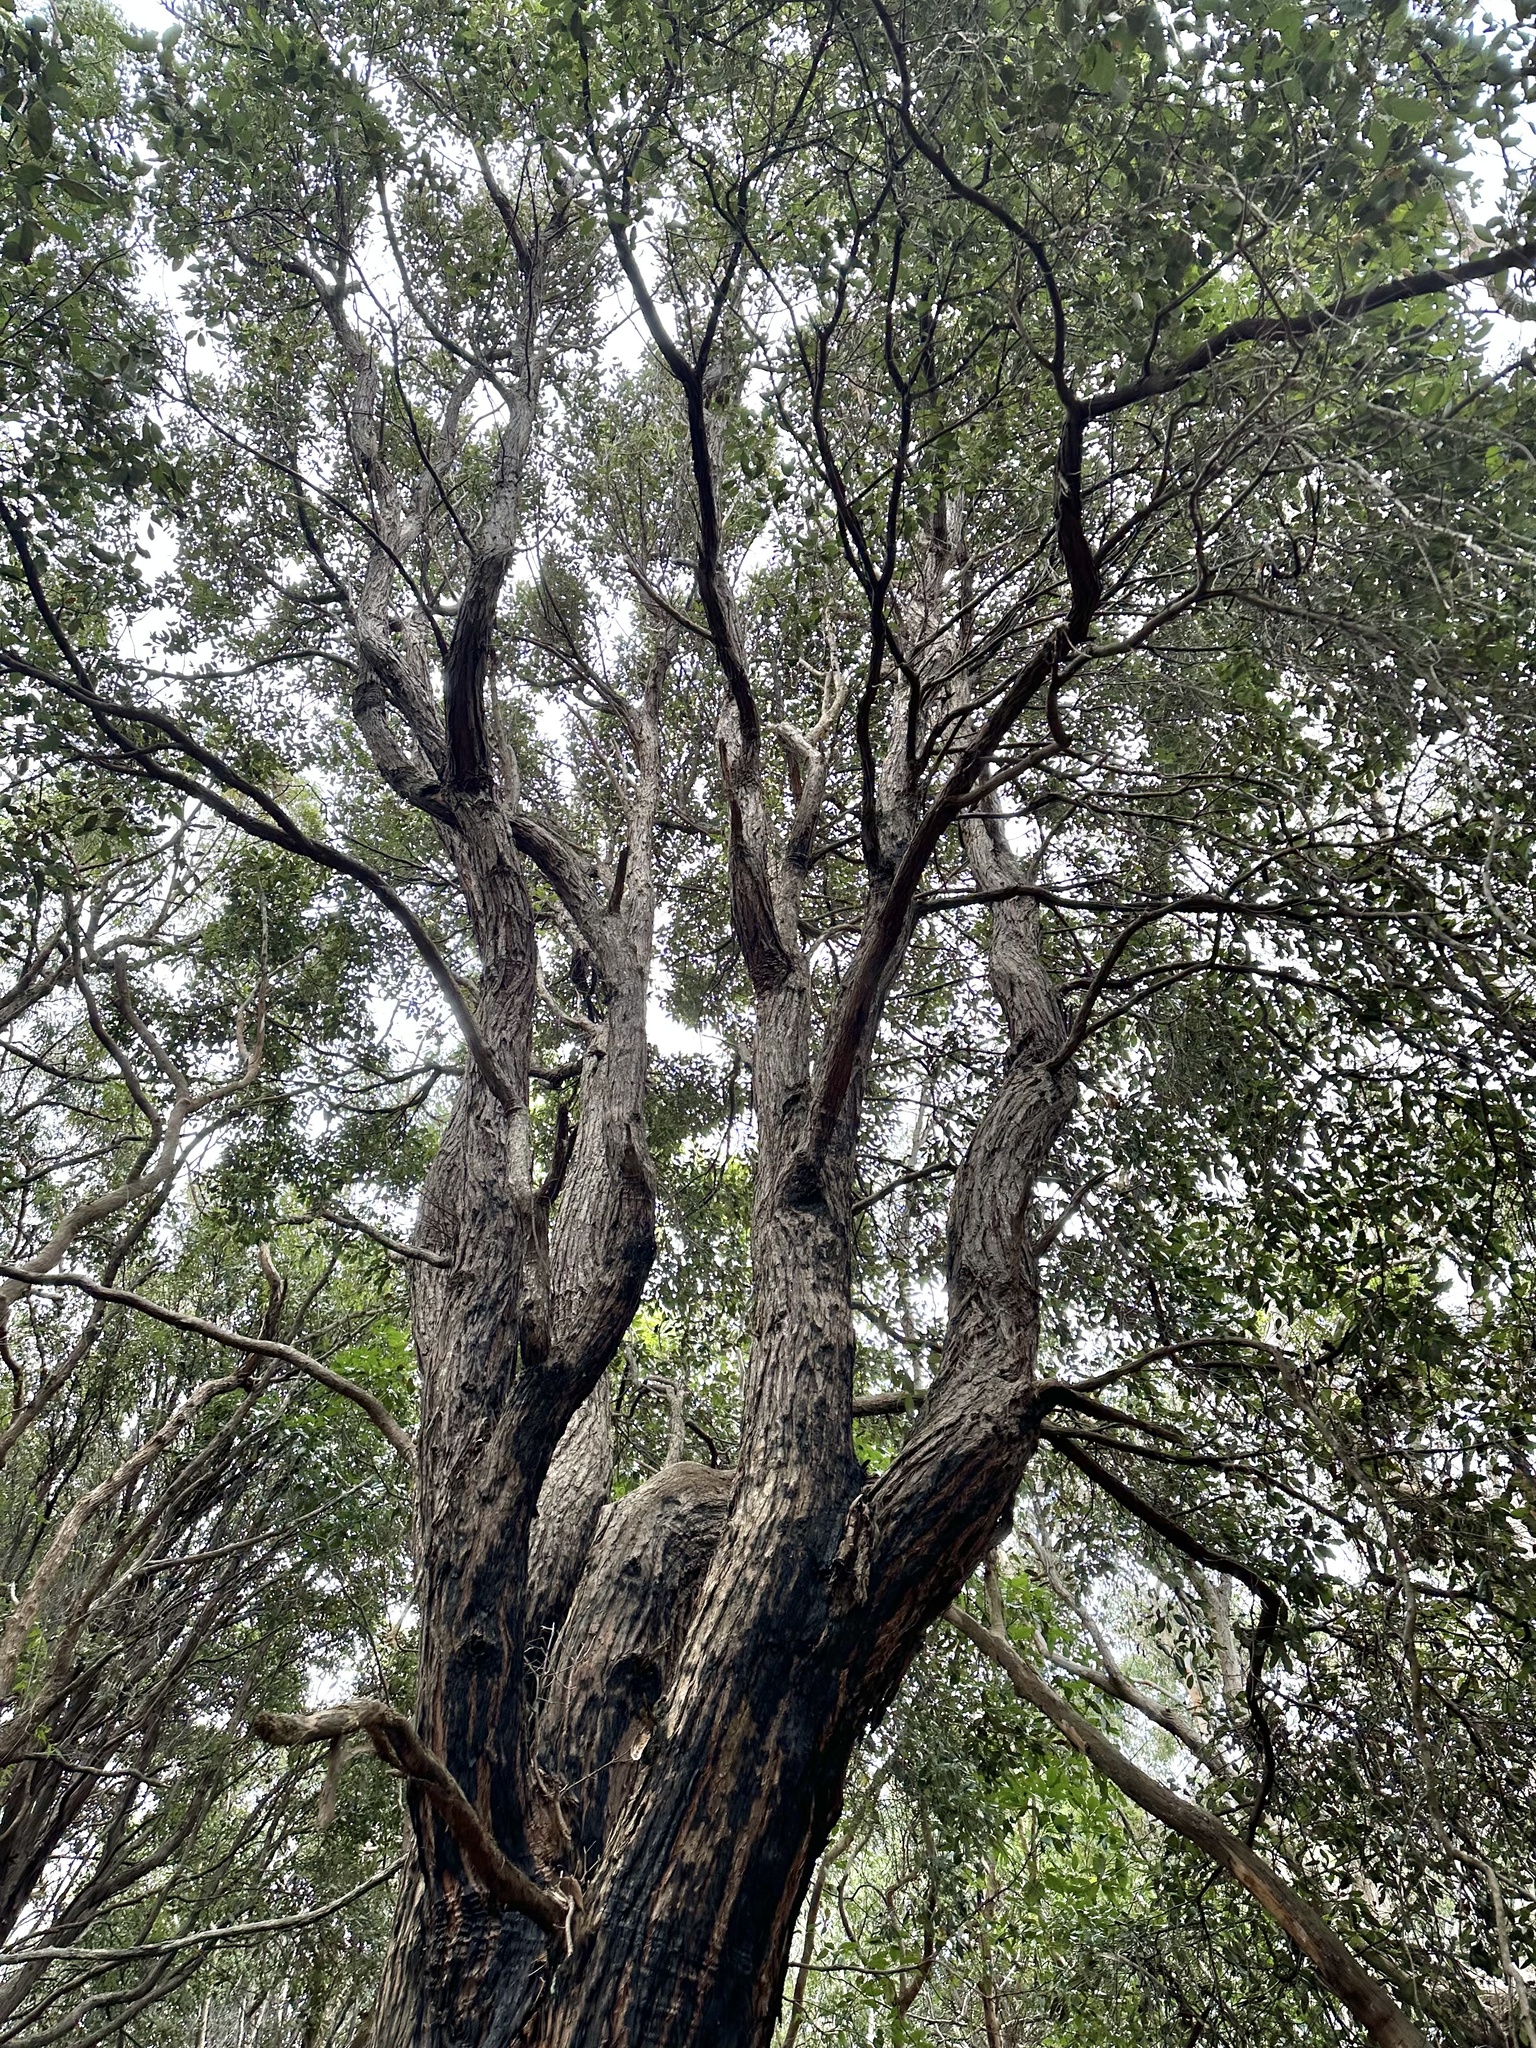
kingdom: Plantae
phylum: Tracheophyta
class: Magnoliopsida
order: Myrtales
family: Myrtaceae
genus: Syncarpia
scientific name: Syncarpia glomulifera
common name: Turpentine tree
